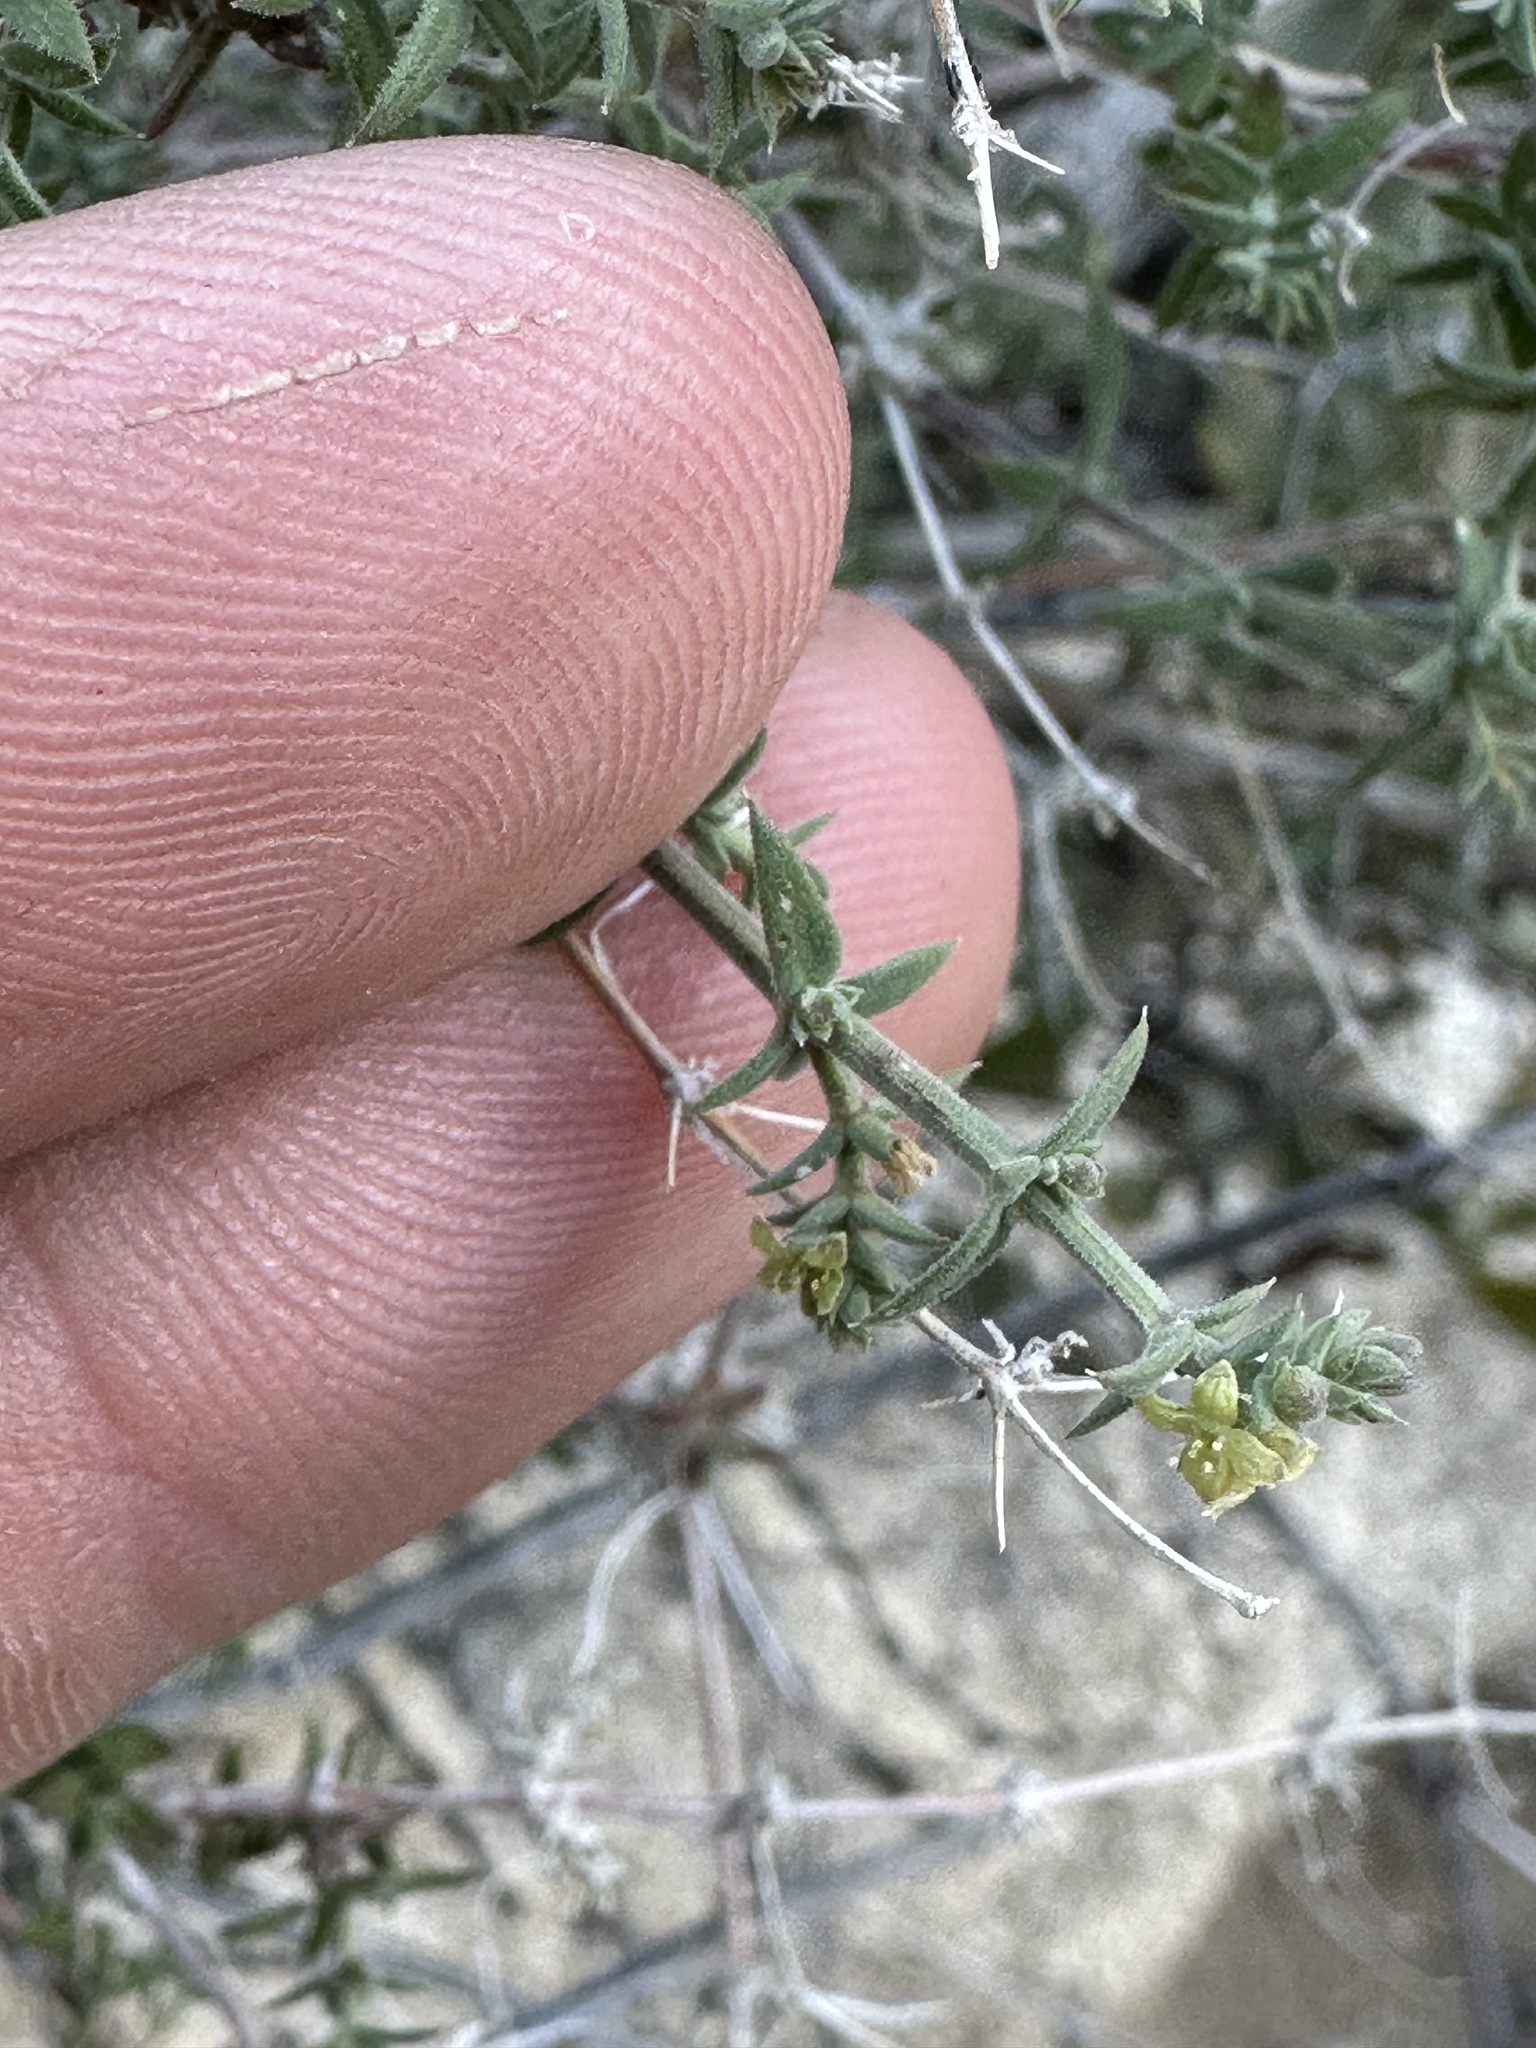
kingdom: Plantae
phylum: Tracheophyta
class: Magnoliopsida
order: Gentianales
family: Rubiaceae
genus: Galium
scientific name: Galium stellatum
